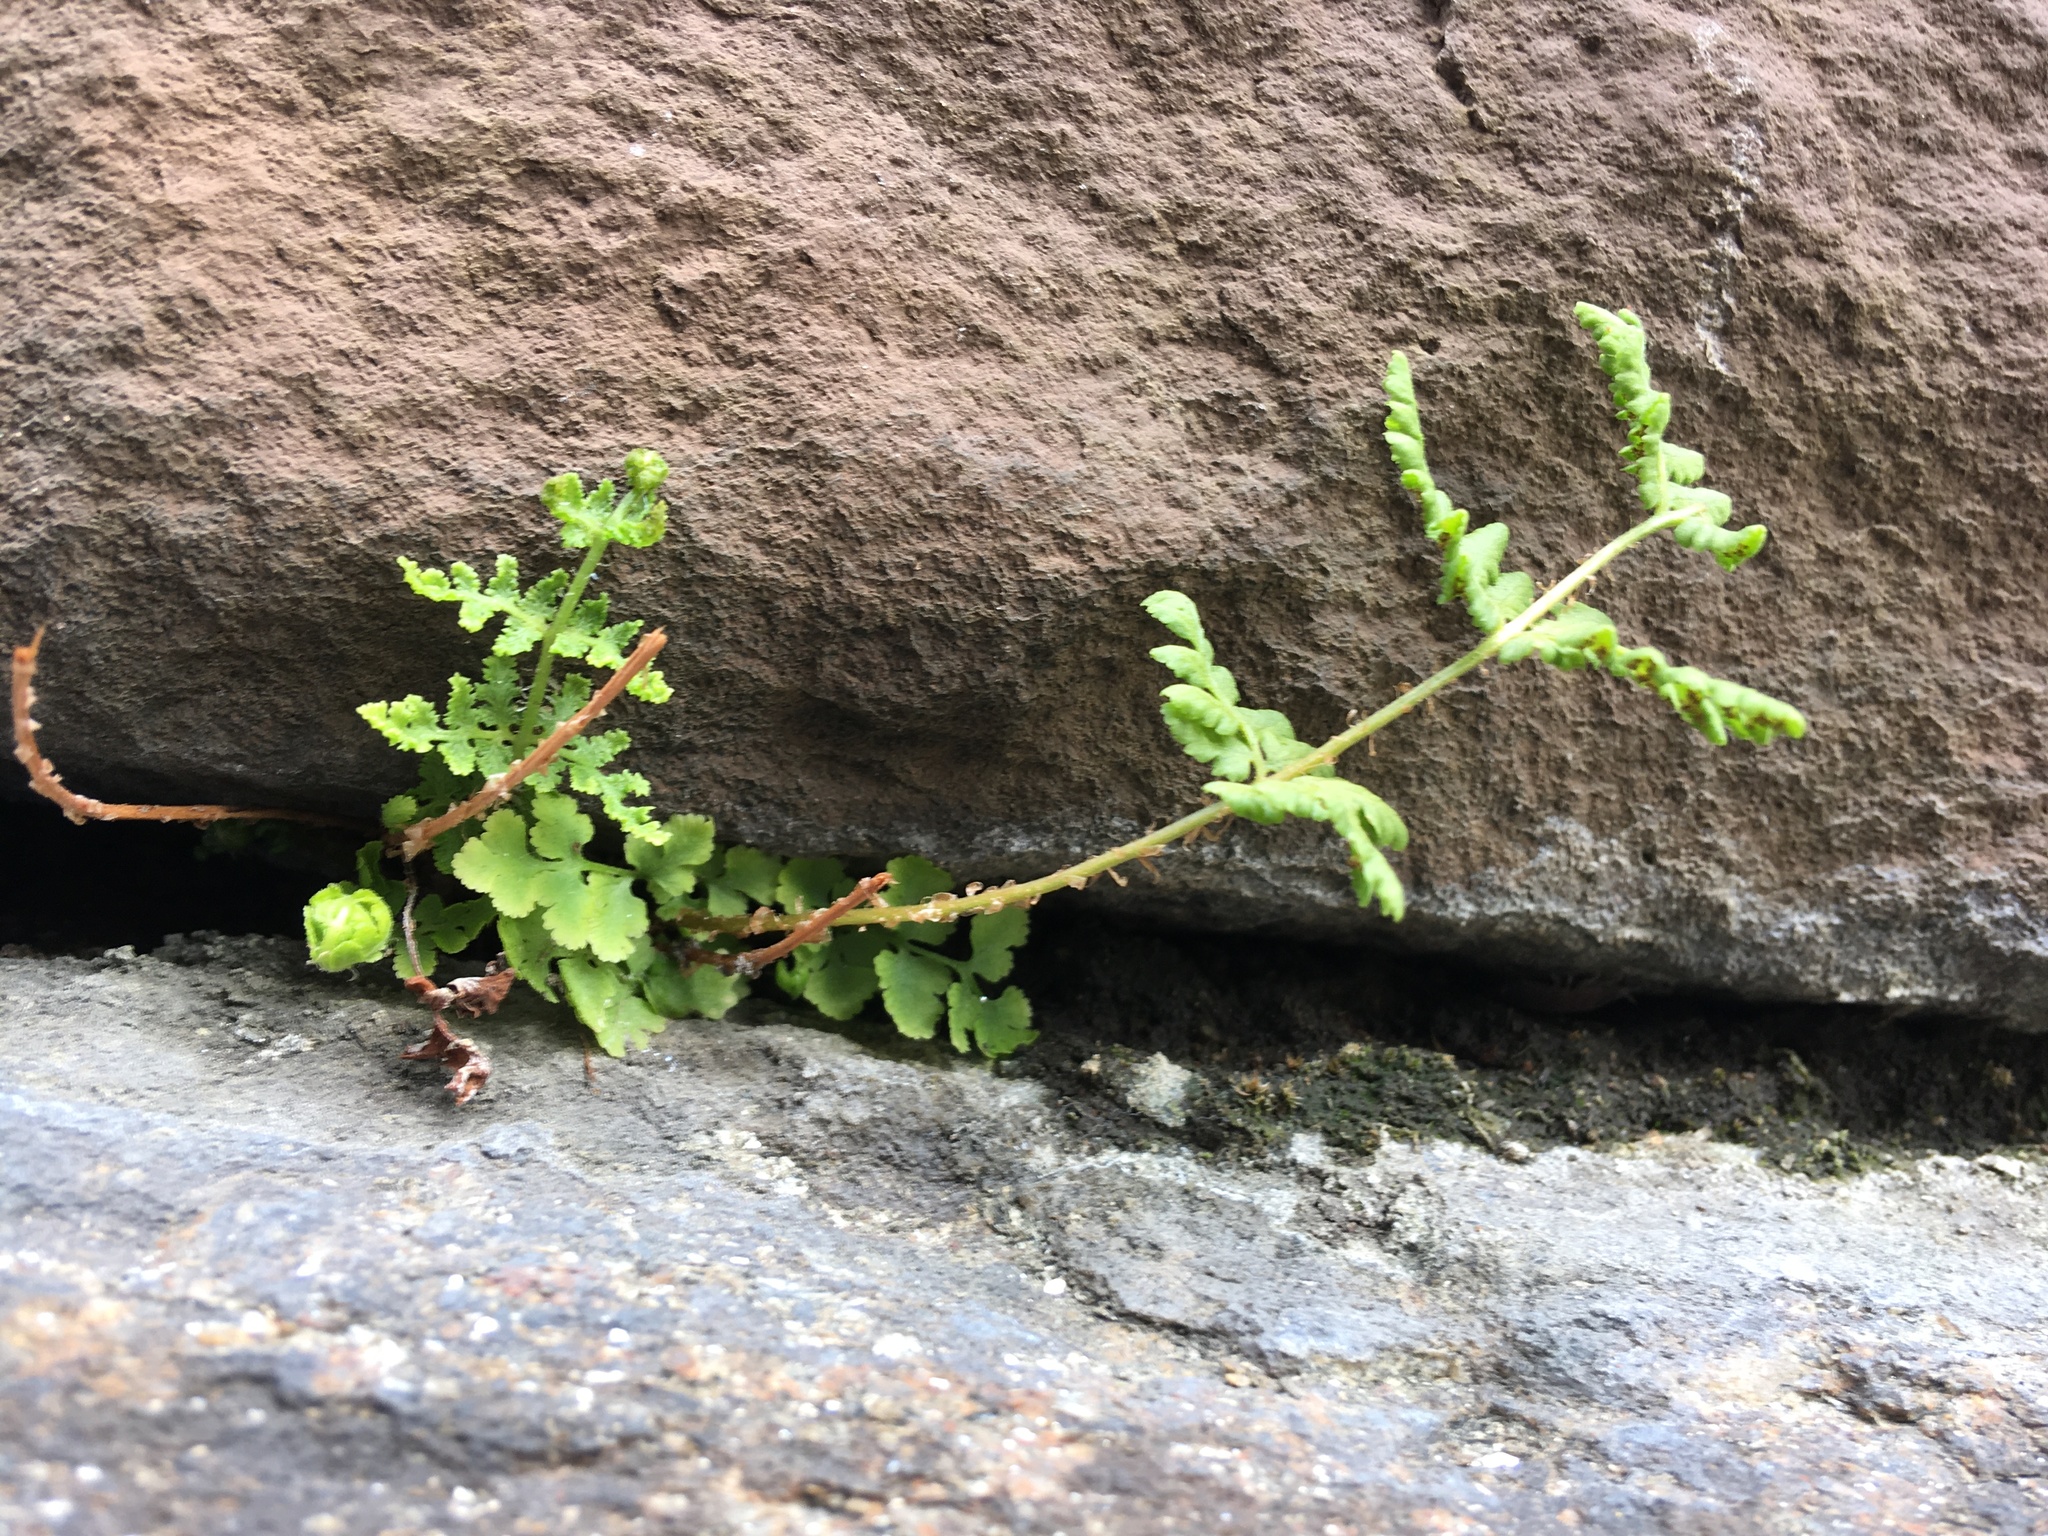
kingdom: Plantae
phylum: Tracheophyta
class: Polypodiopsida
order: Polypodiales
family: Woodsiaceae
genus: Physematium
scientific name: Physematium obtusum
